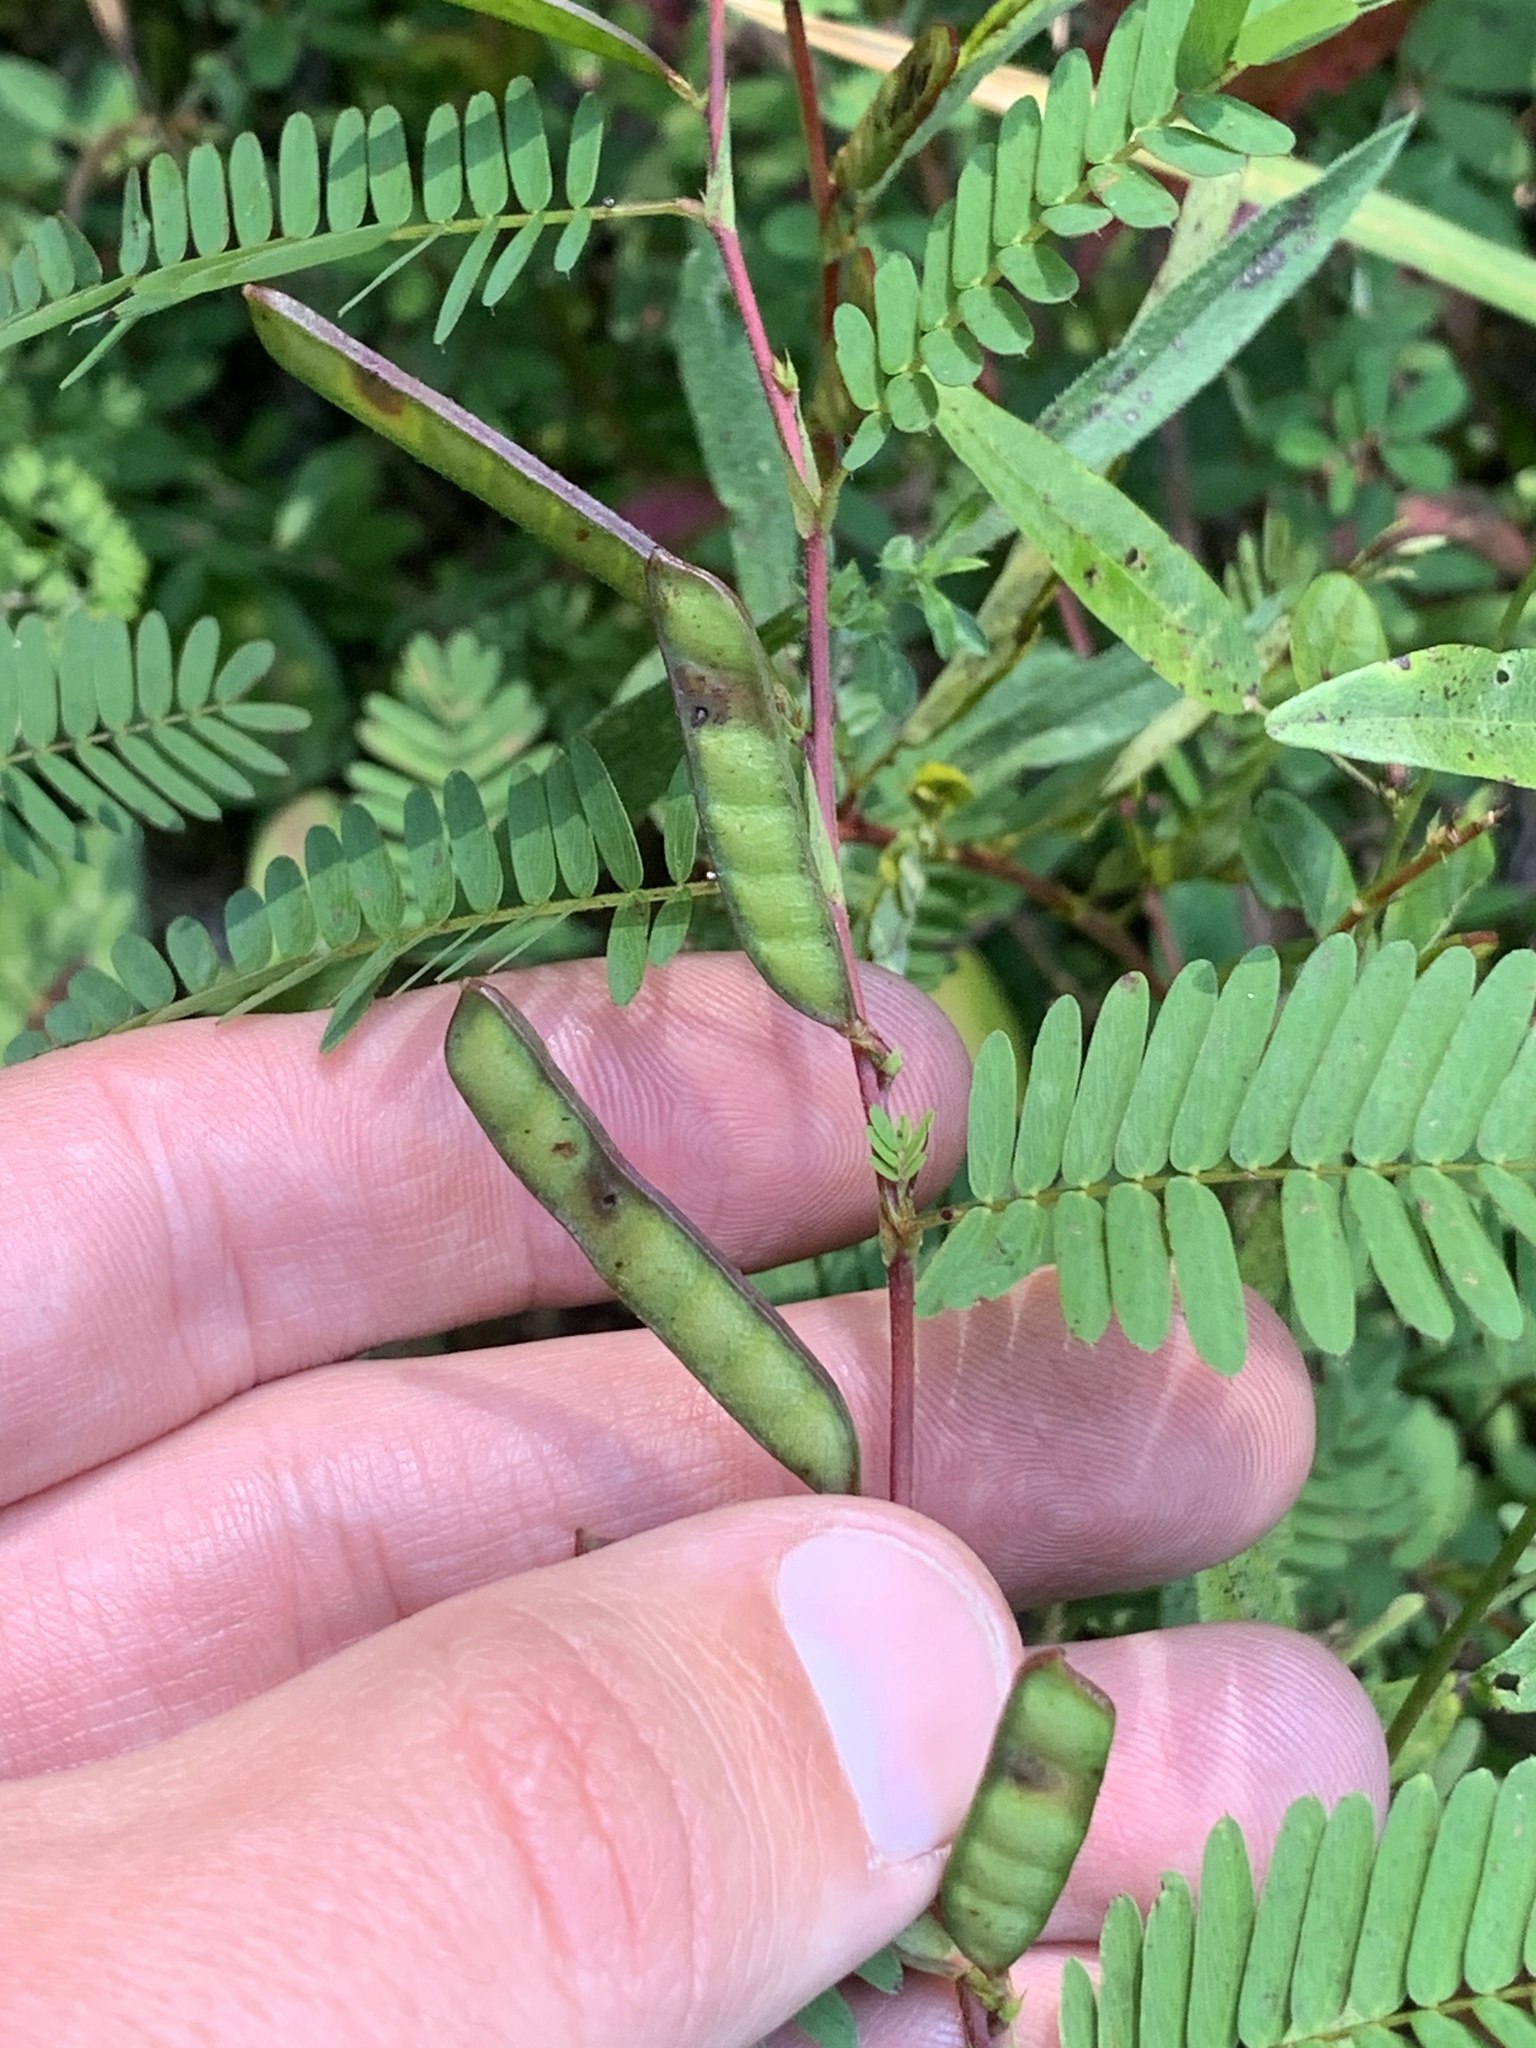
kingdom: Plantae
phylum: Tracheophyta
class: Magnoliopsida
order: Fabales
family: Fabaceae
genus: Chamaecrista
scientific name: Chamaecrista nictitans
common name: Sensitive cassia
